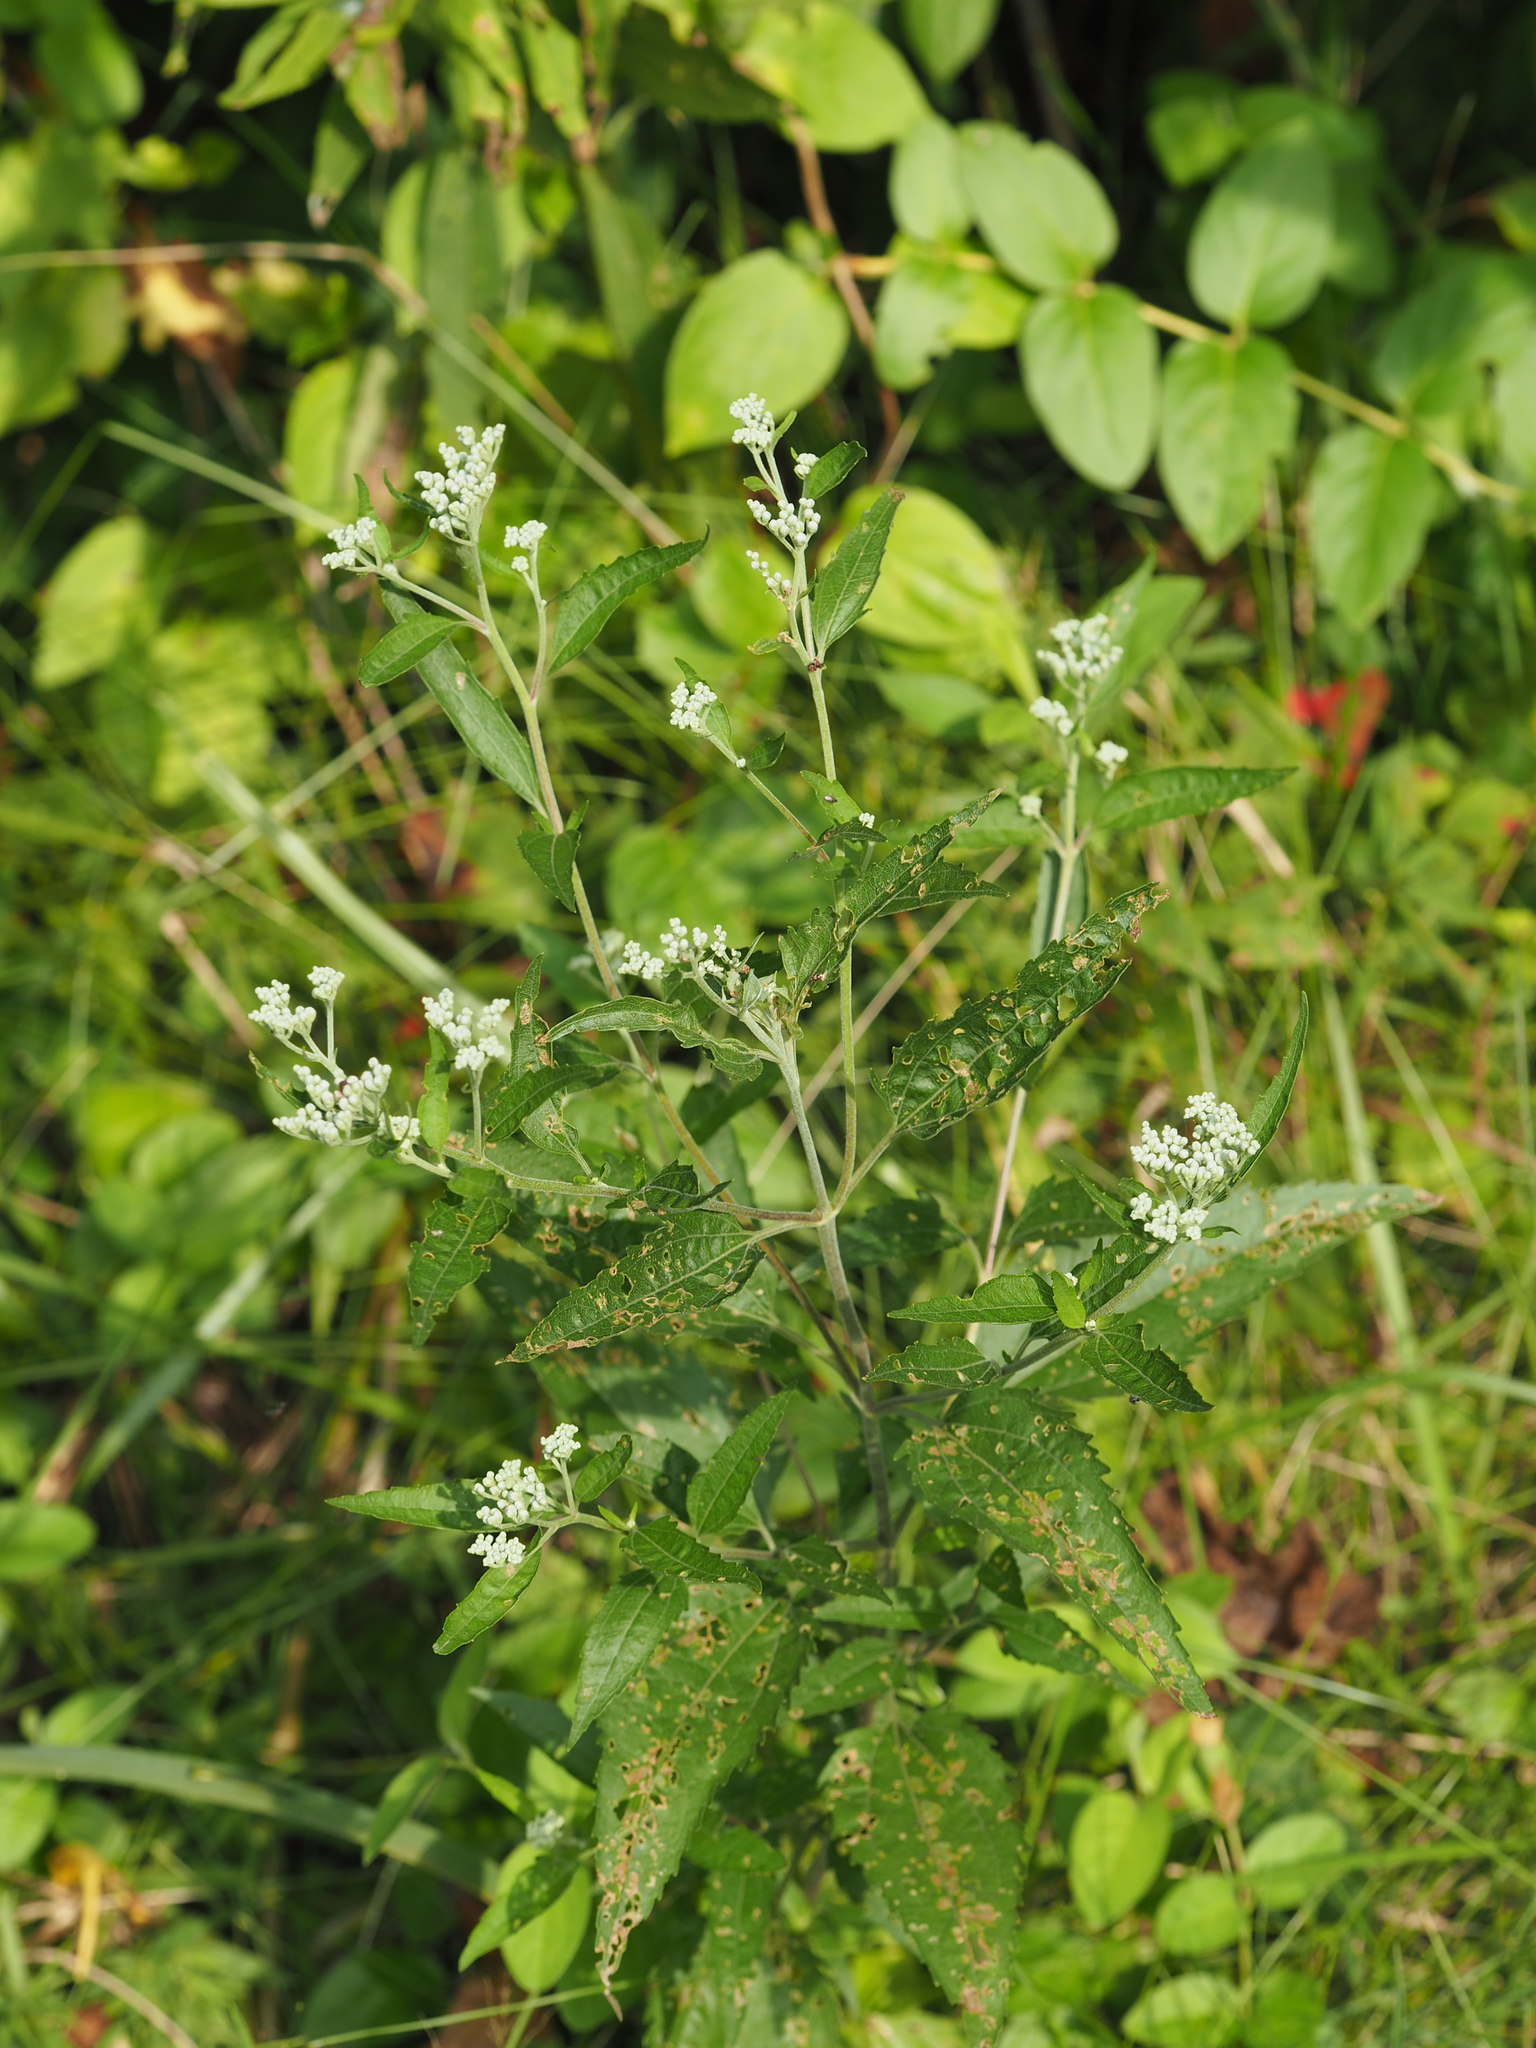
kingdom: Plantae
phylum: Tracheophyta
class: Magnoliopsida
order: Asterales
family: Asteraceae
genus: Eupatorium
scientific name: Eupatorium serotinum
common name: Late boneset
